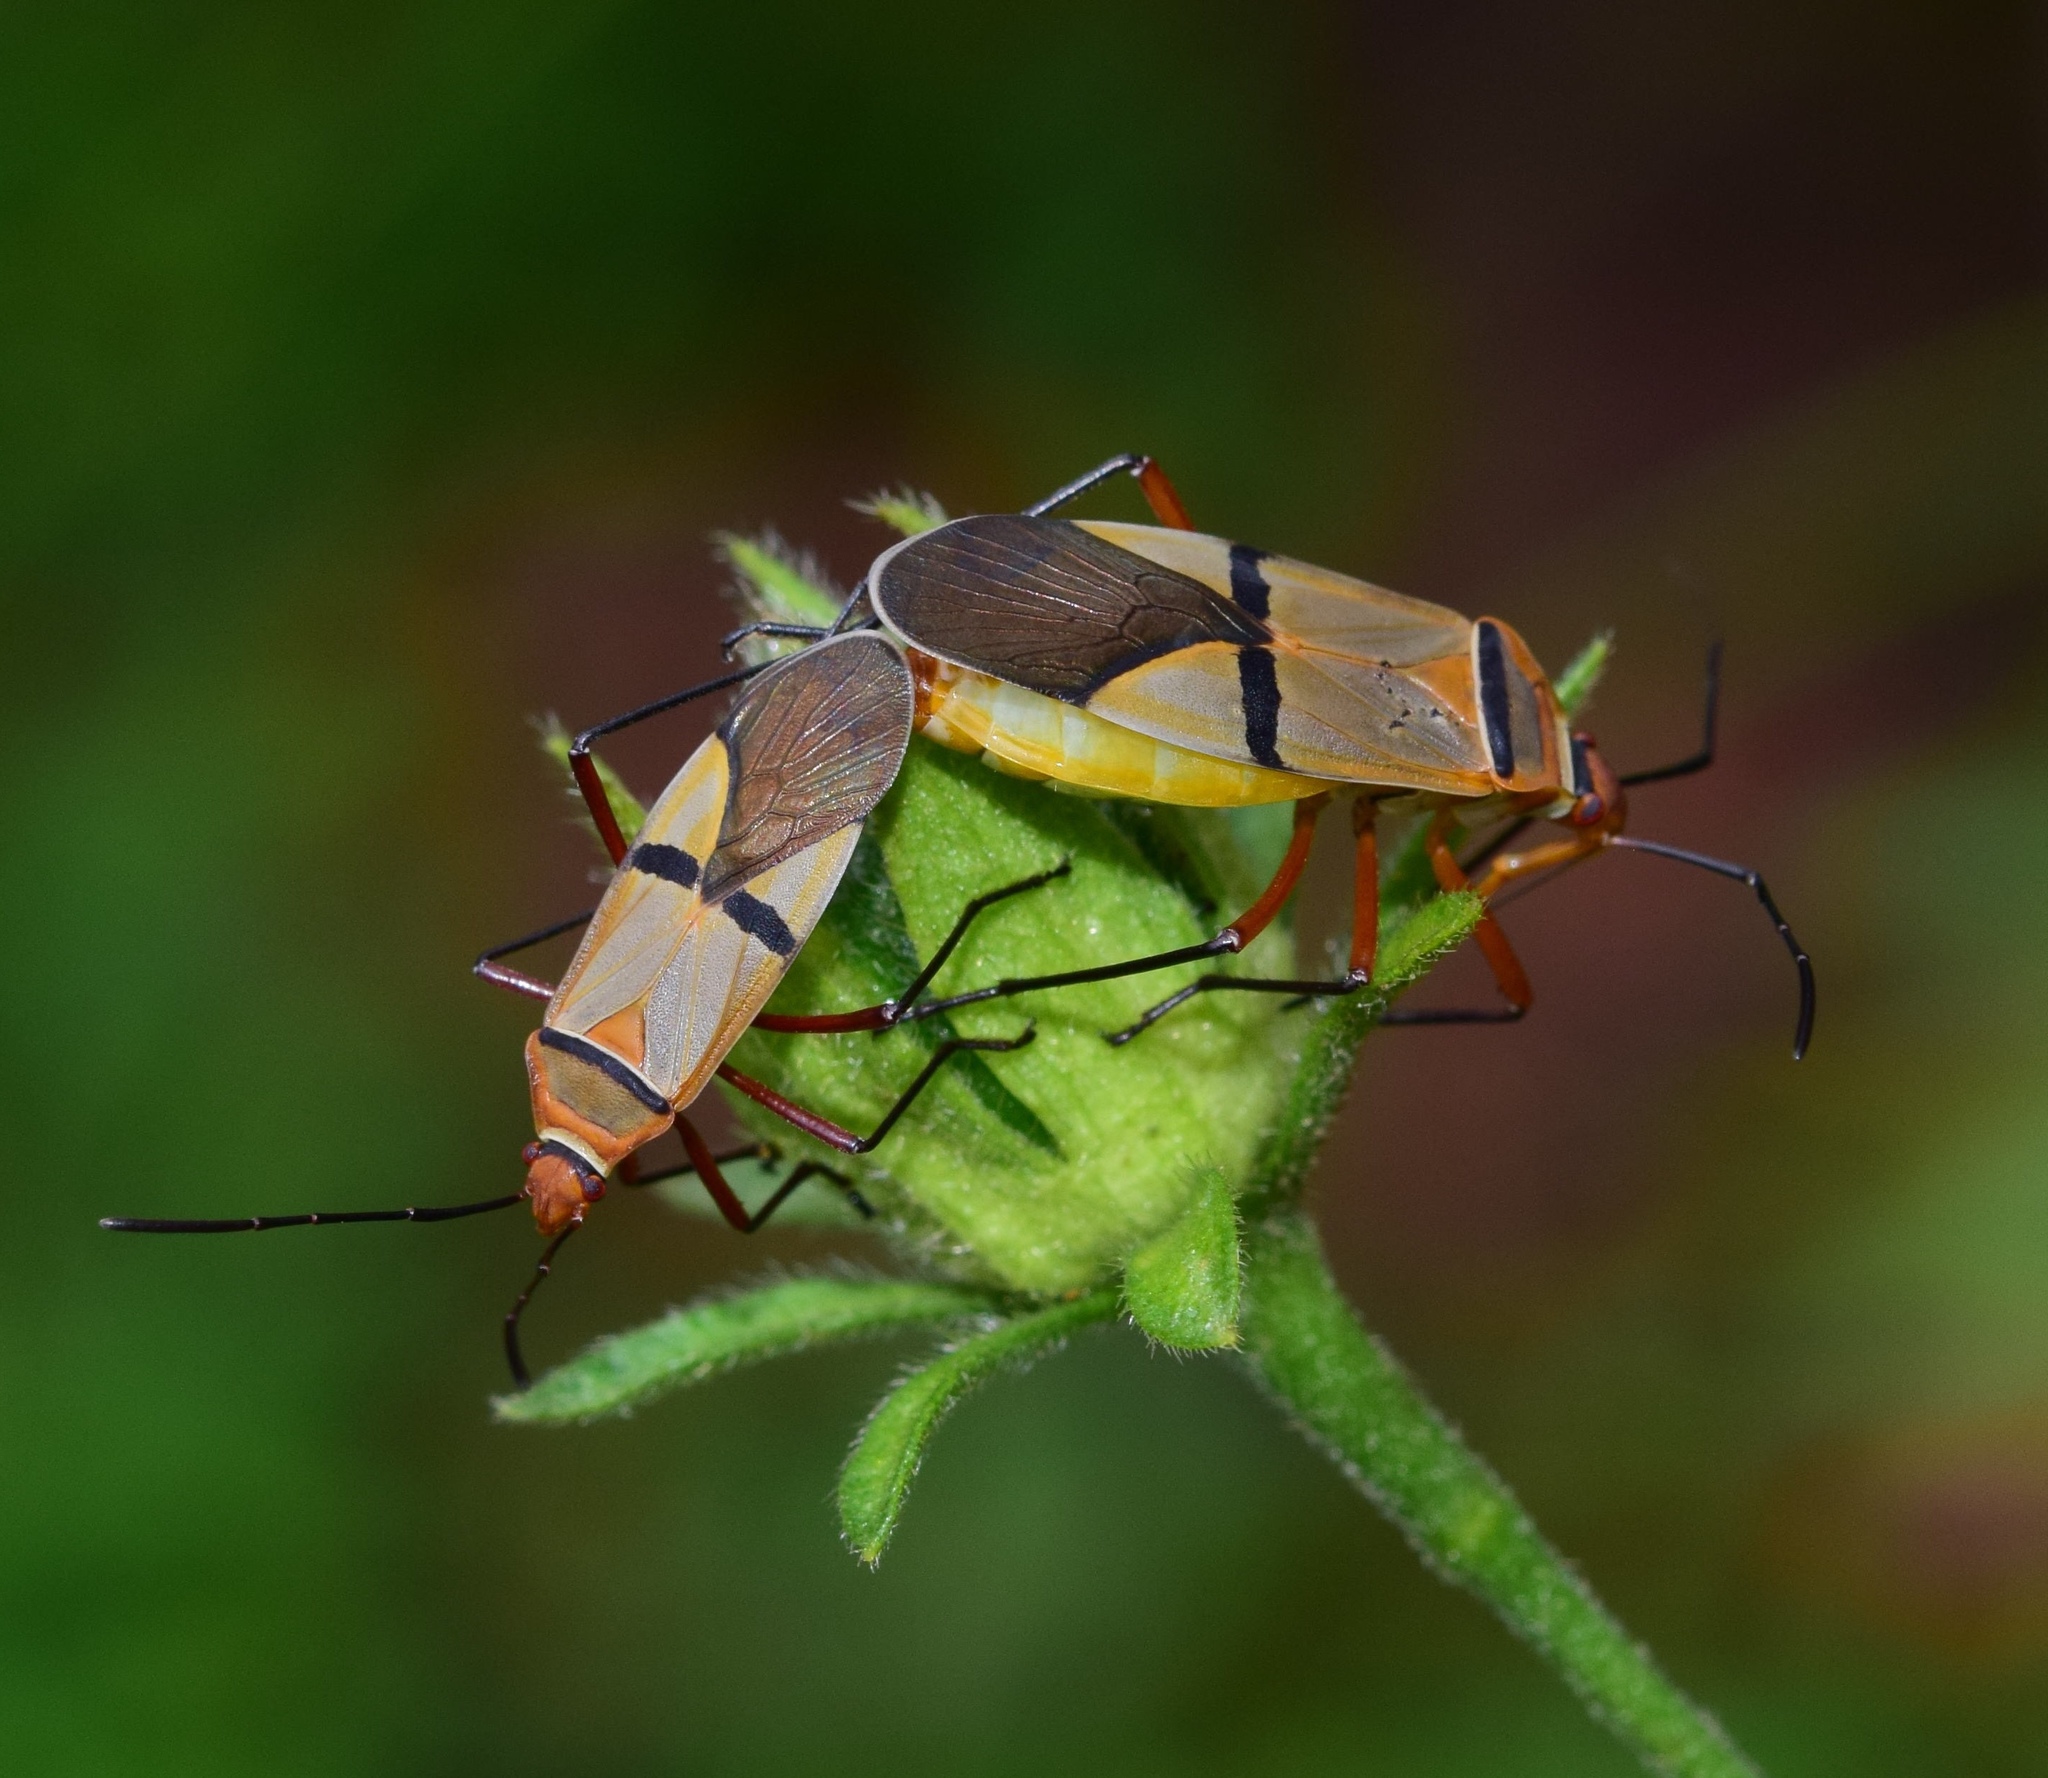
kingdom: Animalia
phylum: Arthropoda
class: Insecta
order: Hemiptera
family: Pyrrhocoridae
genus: Dysdercus
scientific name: Dysdercus
